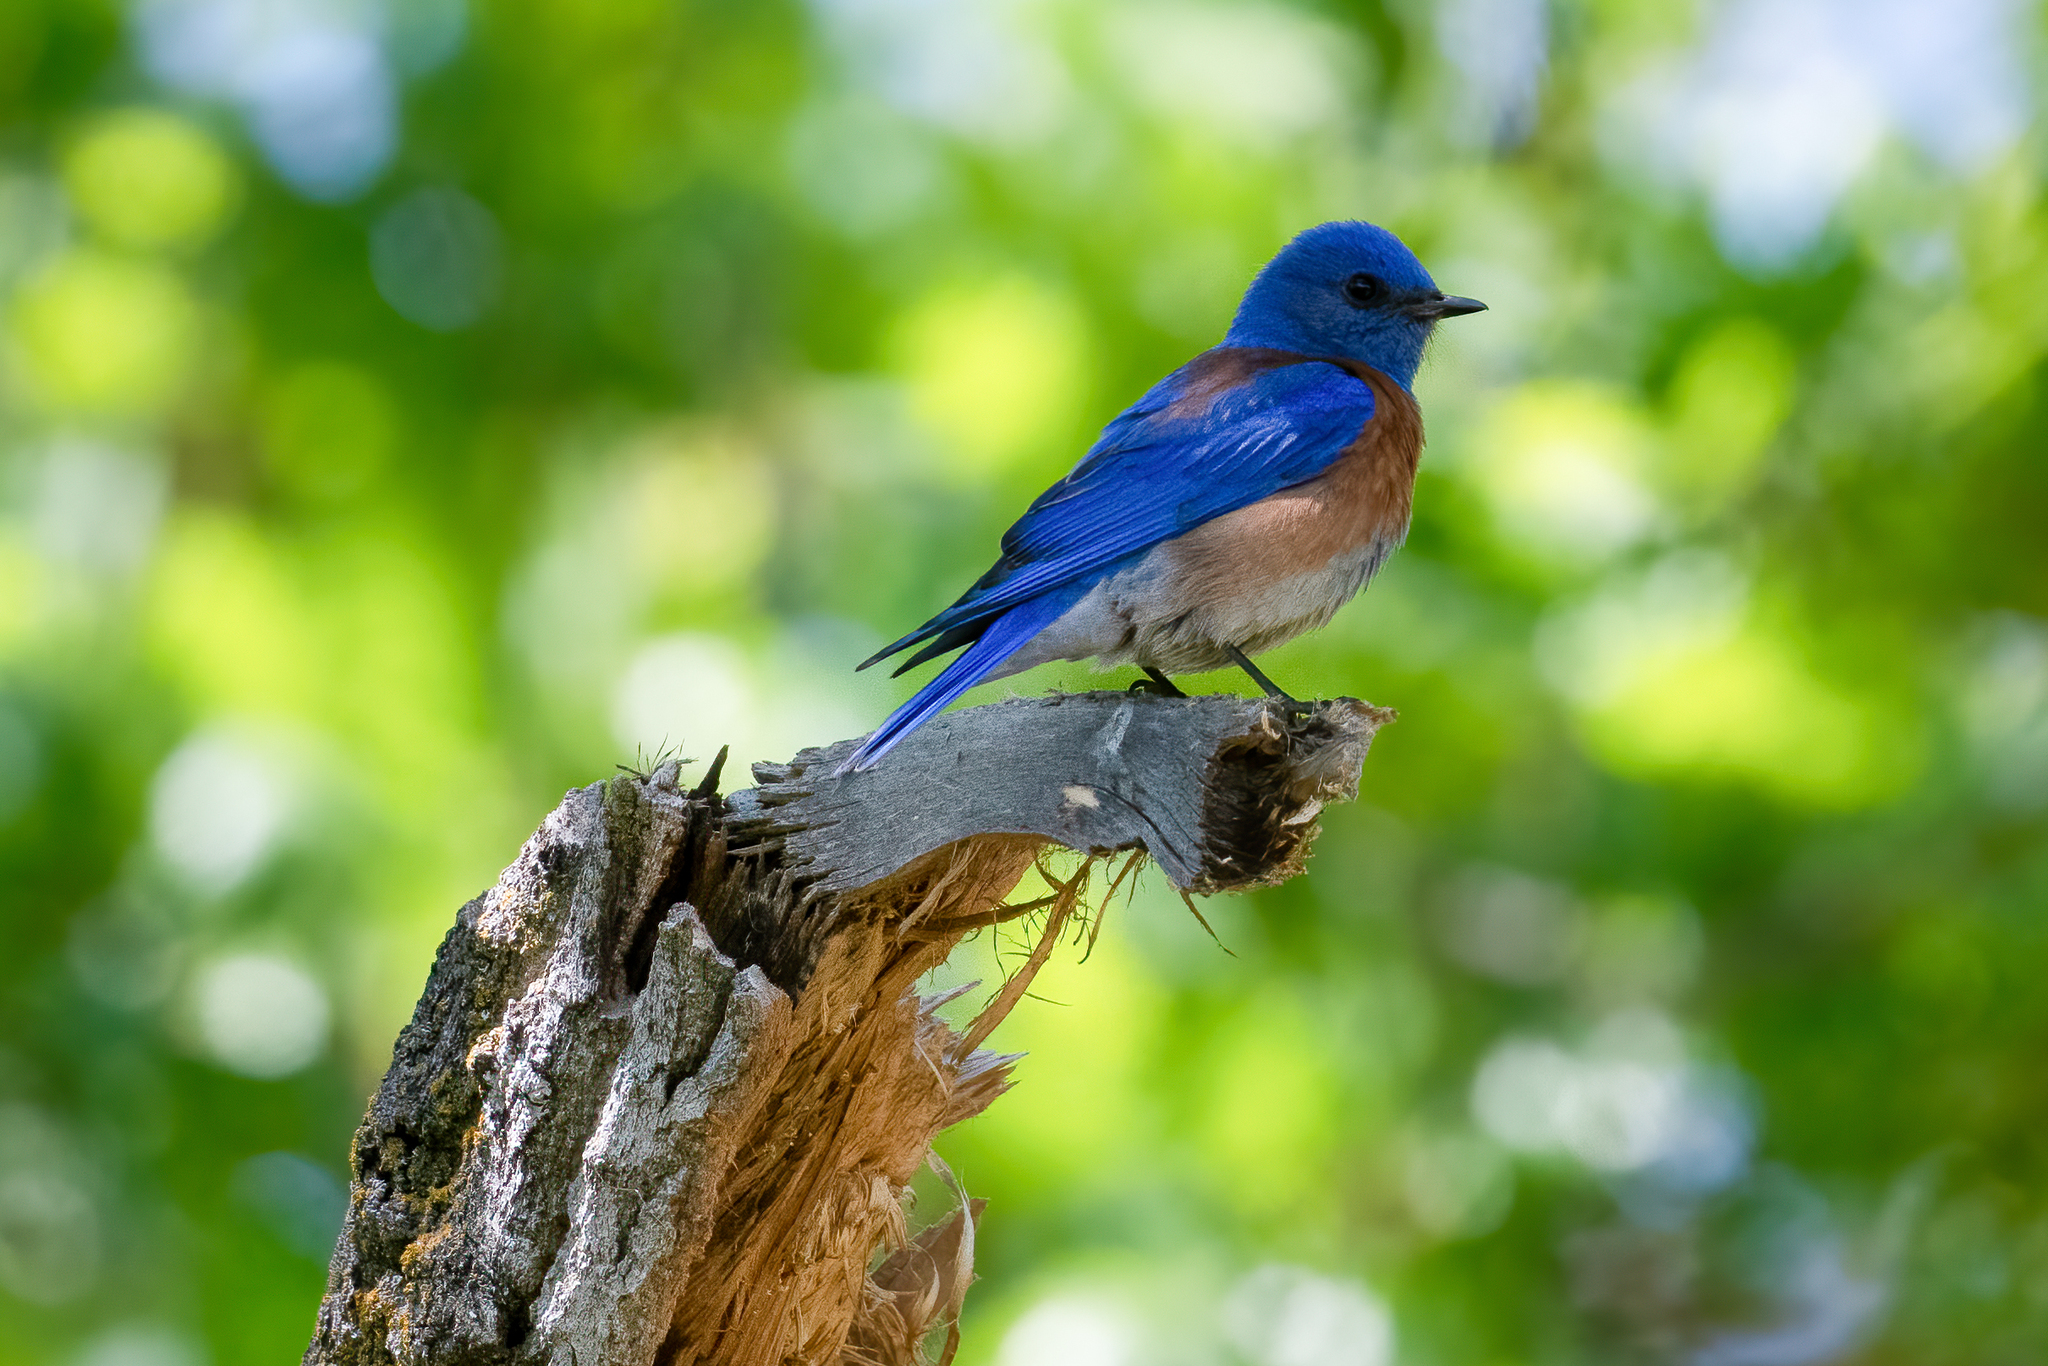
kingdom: Animalia
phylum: Chordata
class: Aves
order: Passeriformes
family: Turdidae
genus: Sialia
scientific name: Sialia mexicana
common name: Western bluebird
